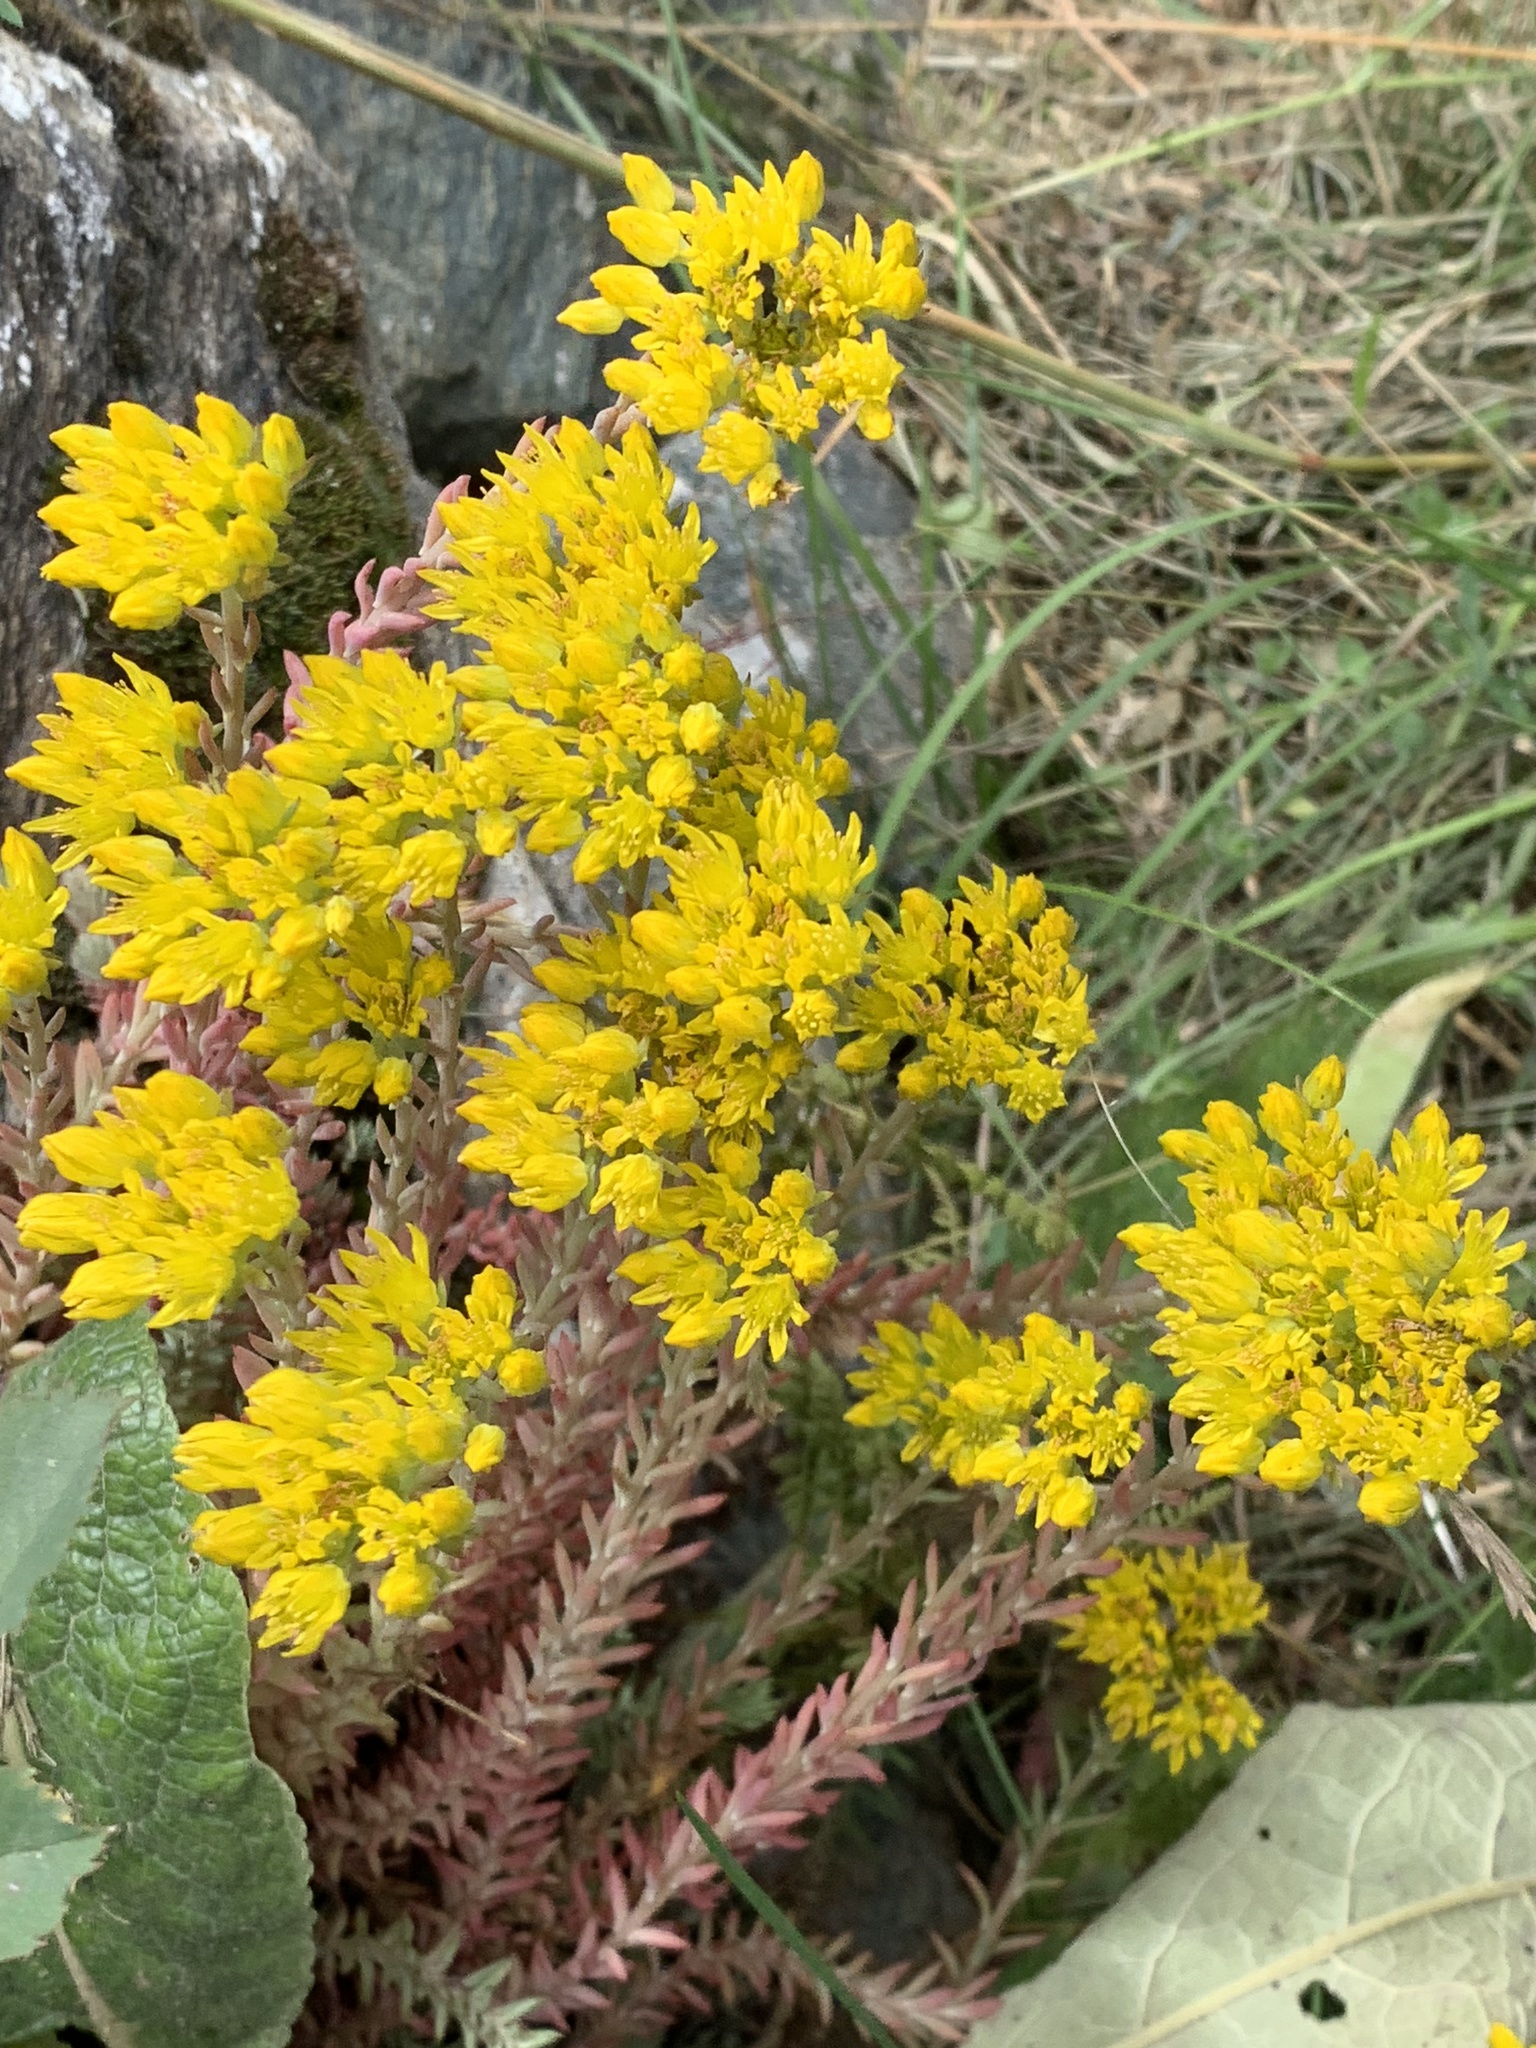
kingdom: Plantae
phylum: Tracheophyta
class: Magnoliopsida
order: Saxifragales
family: Crassulaceae
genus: Petrosedum
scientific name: Petrosedum montanum
